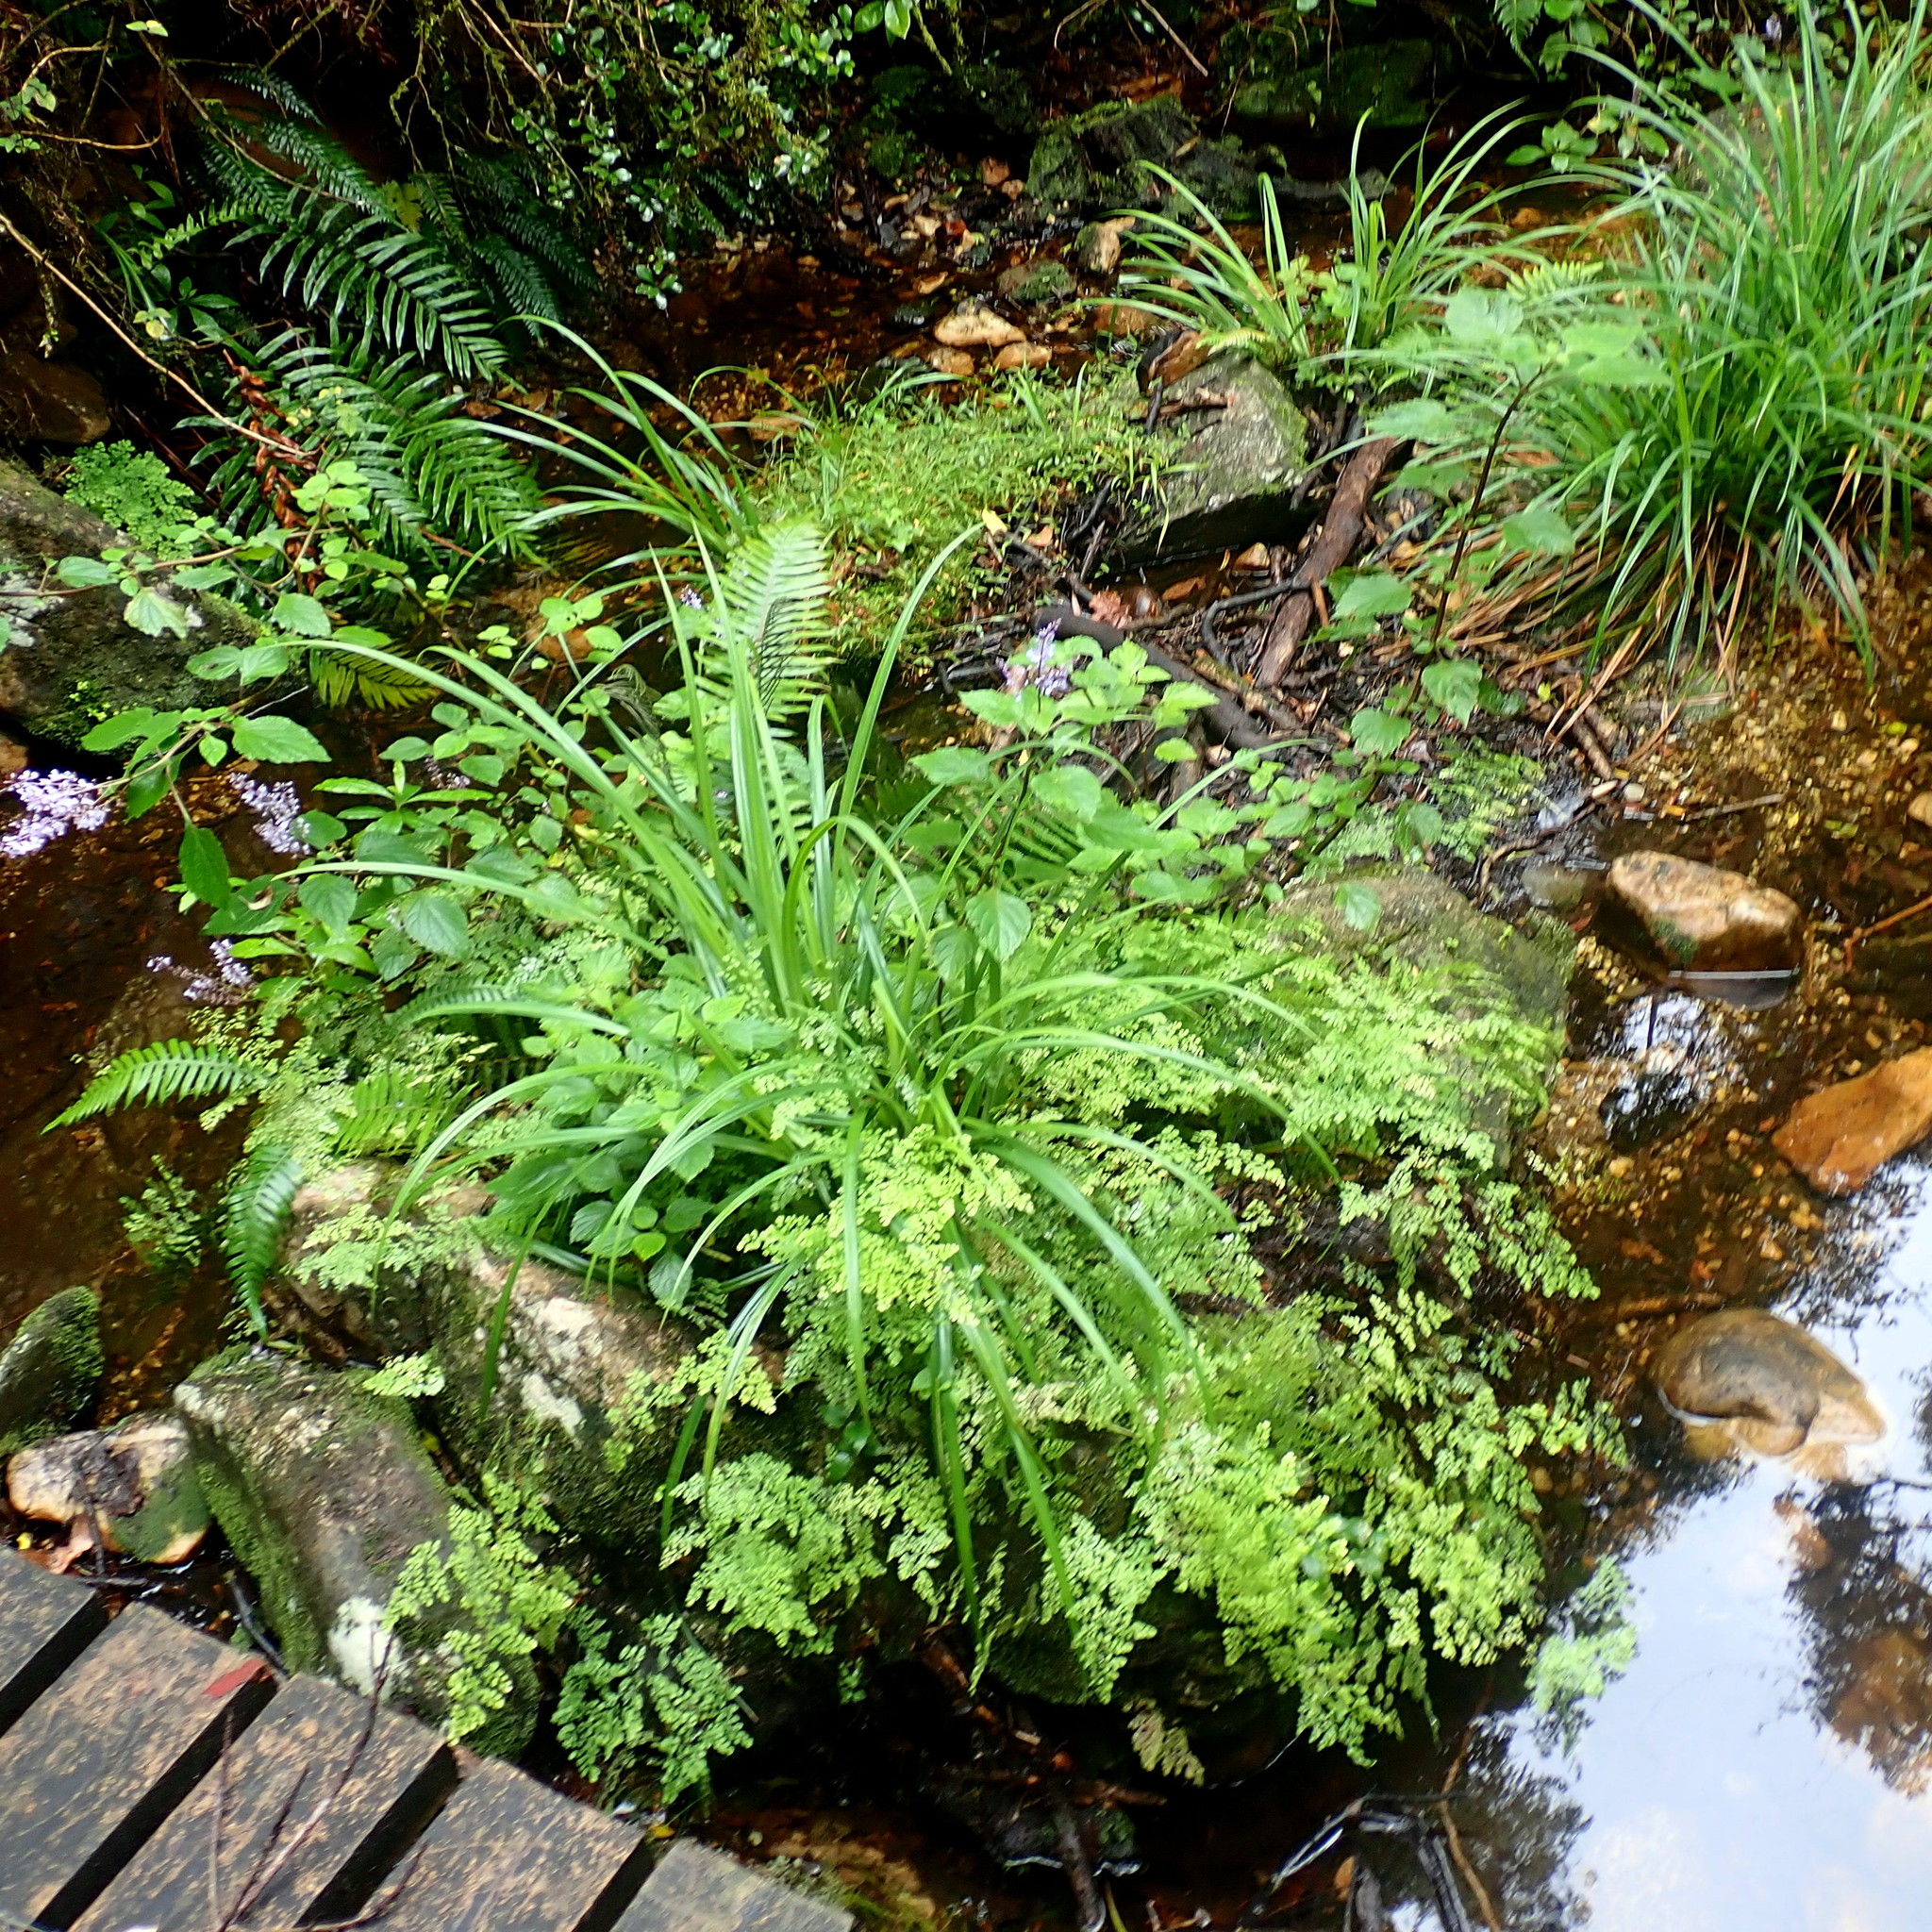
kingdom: Plantae
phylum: Tracheophyta
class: Magnoliopsida
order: Lamiales
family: Lamiaceae
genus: Plectranthus
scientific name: Plectranthus fruticosus
